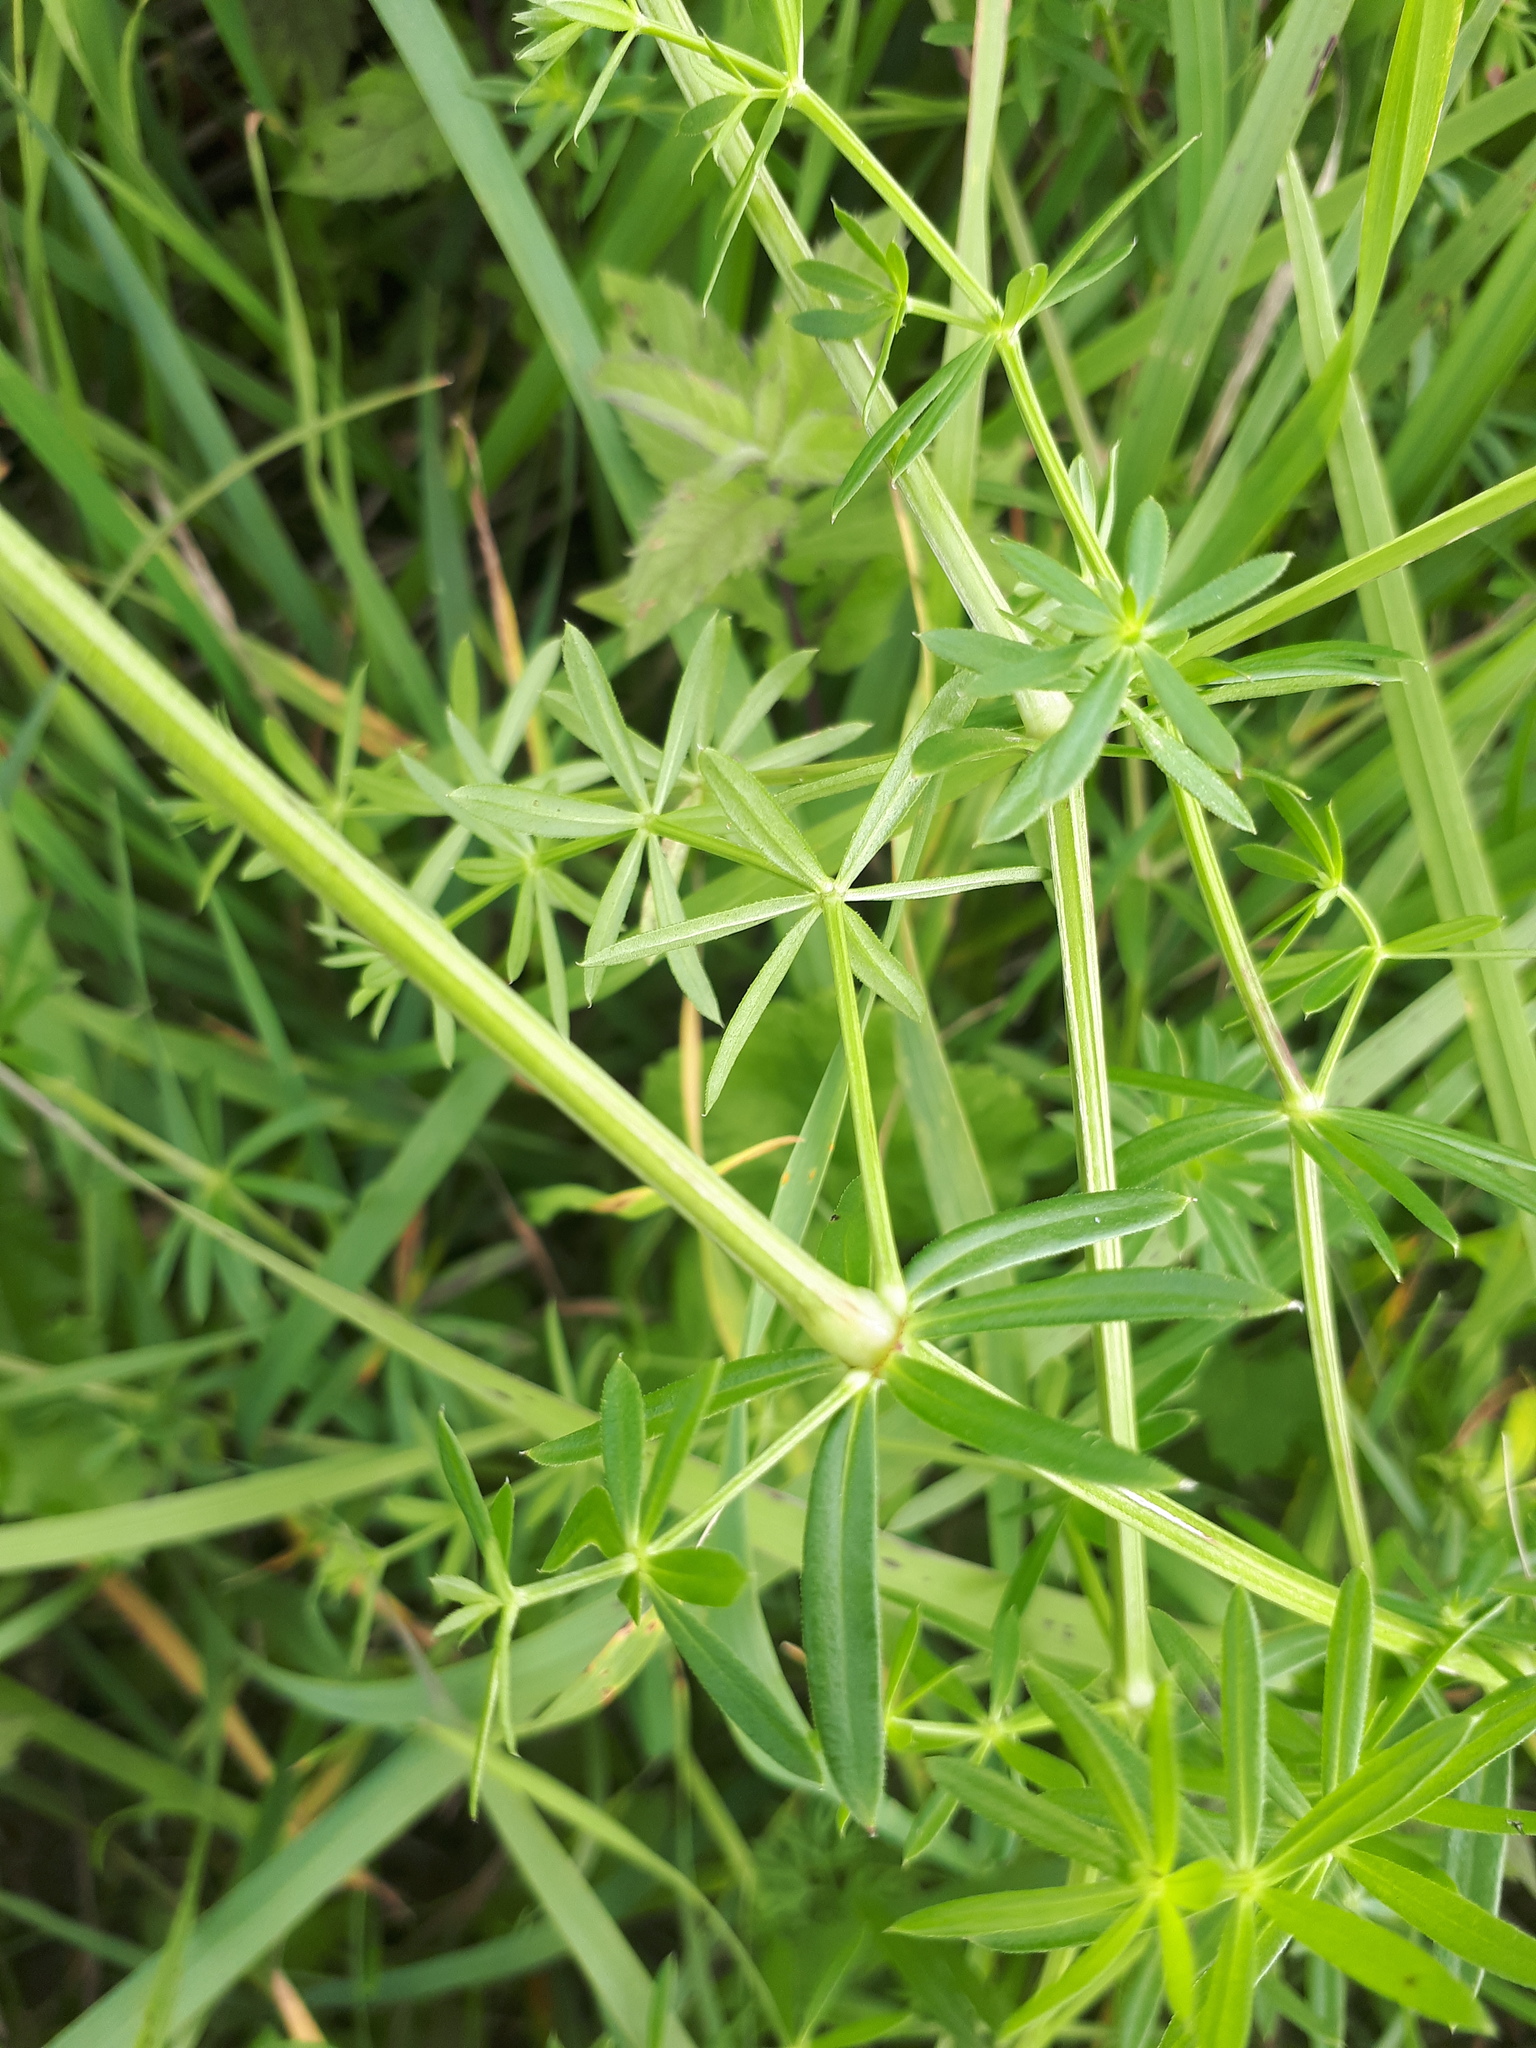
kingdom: Plantae
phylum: Tracheophyta
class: Magnoliopsida
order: Gentianales
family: Rubiaceae
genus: Galium
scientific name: Galium album
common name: White bedstraw
